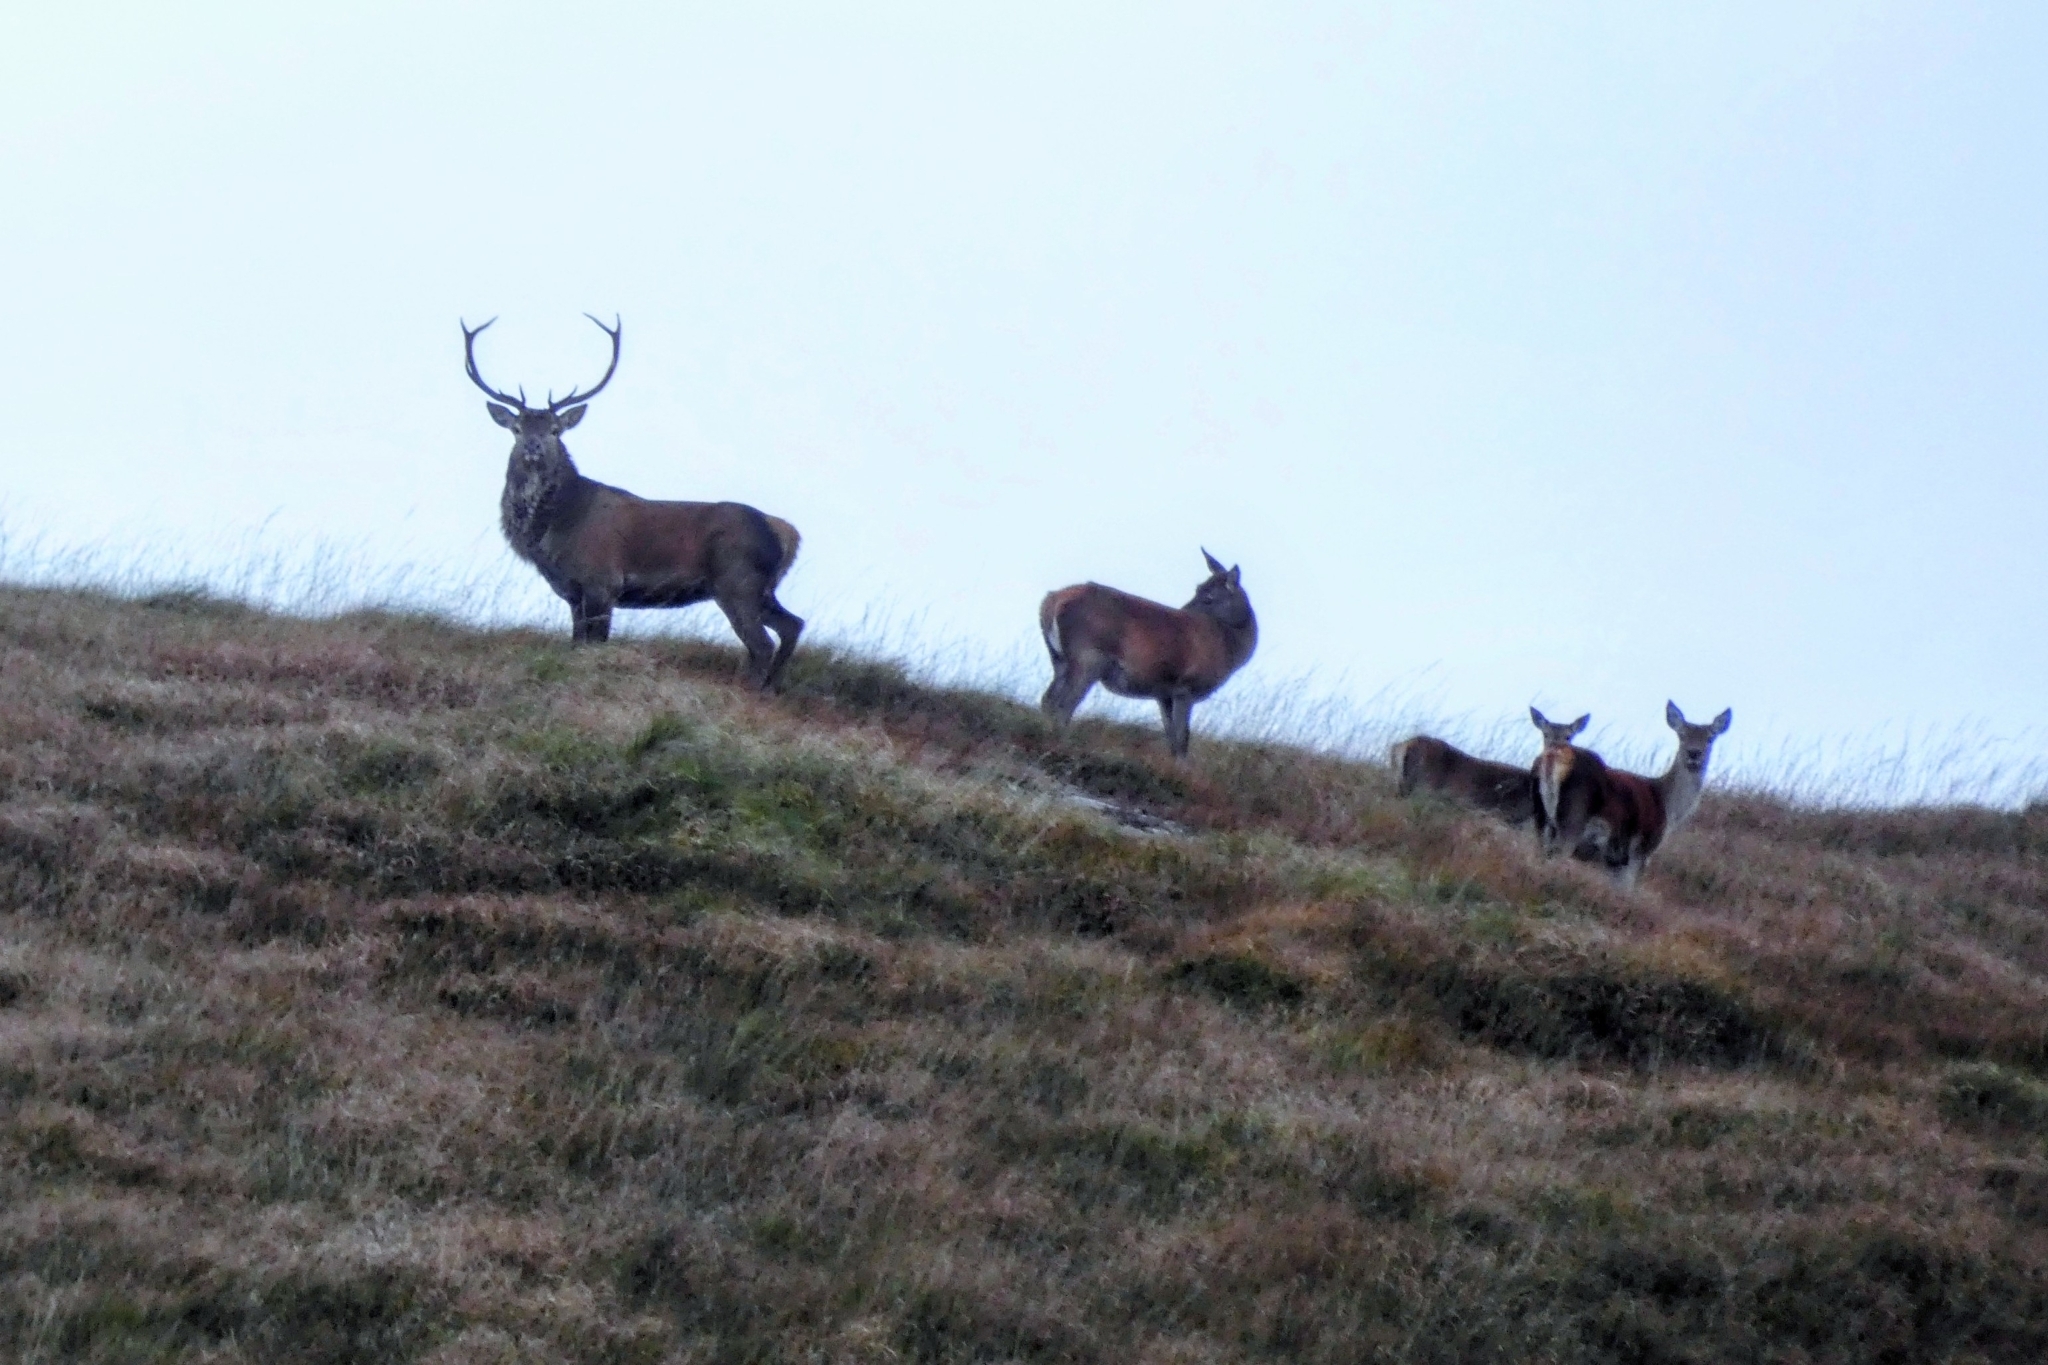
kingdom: Animalia
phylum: Chordata
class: Mammalia
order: Artiodactyla
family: Cervidae
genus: Cervus
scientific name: Cervus elaphus
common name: Red deer
